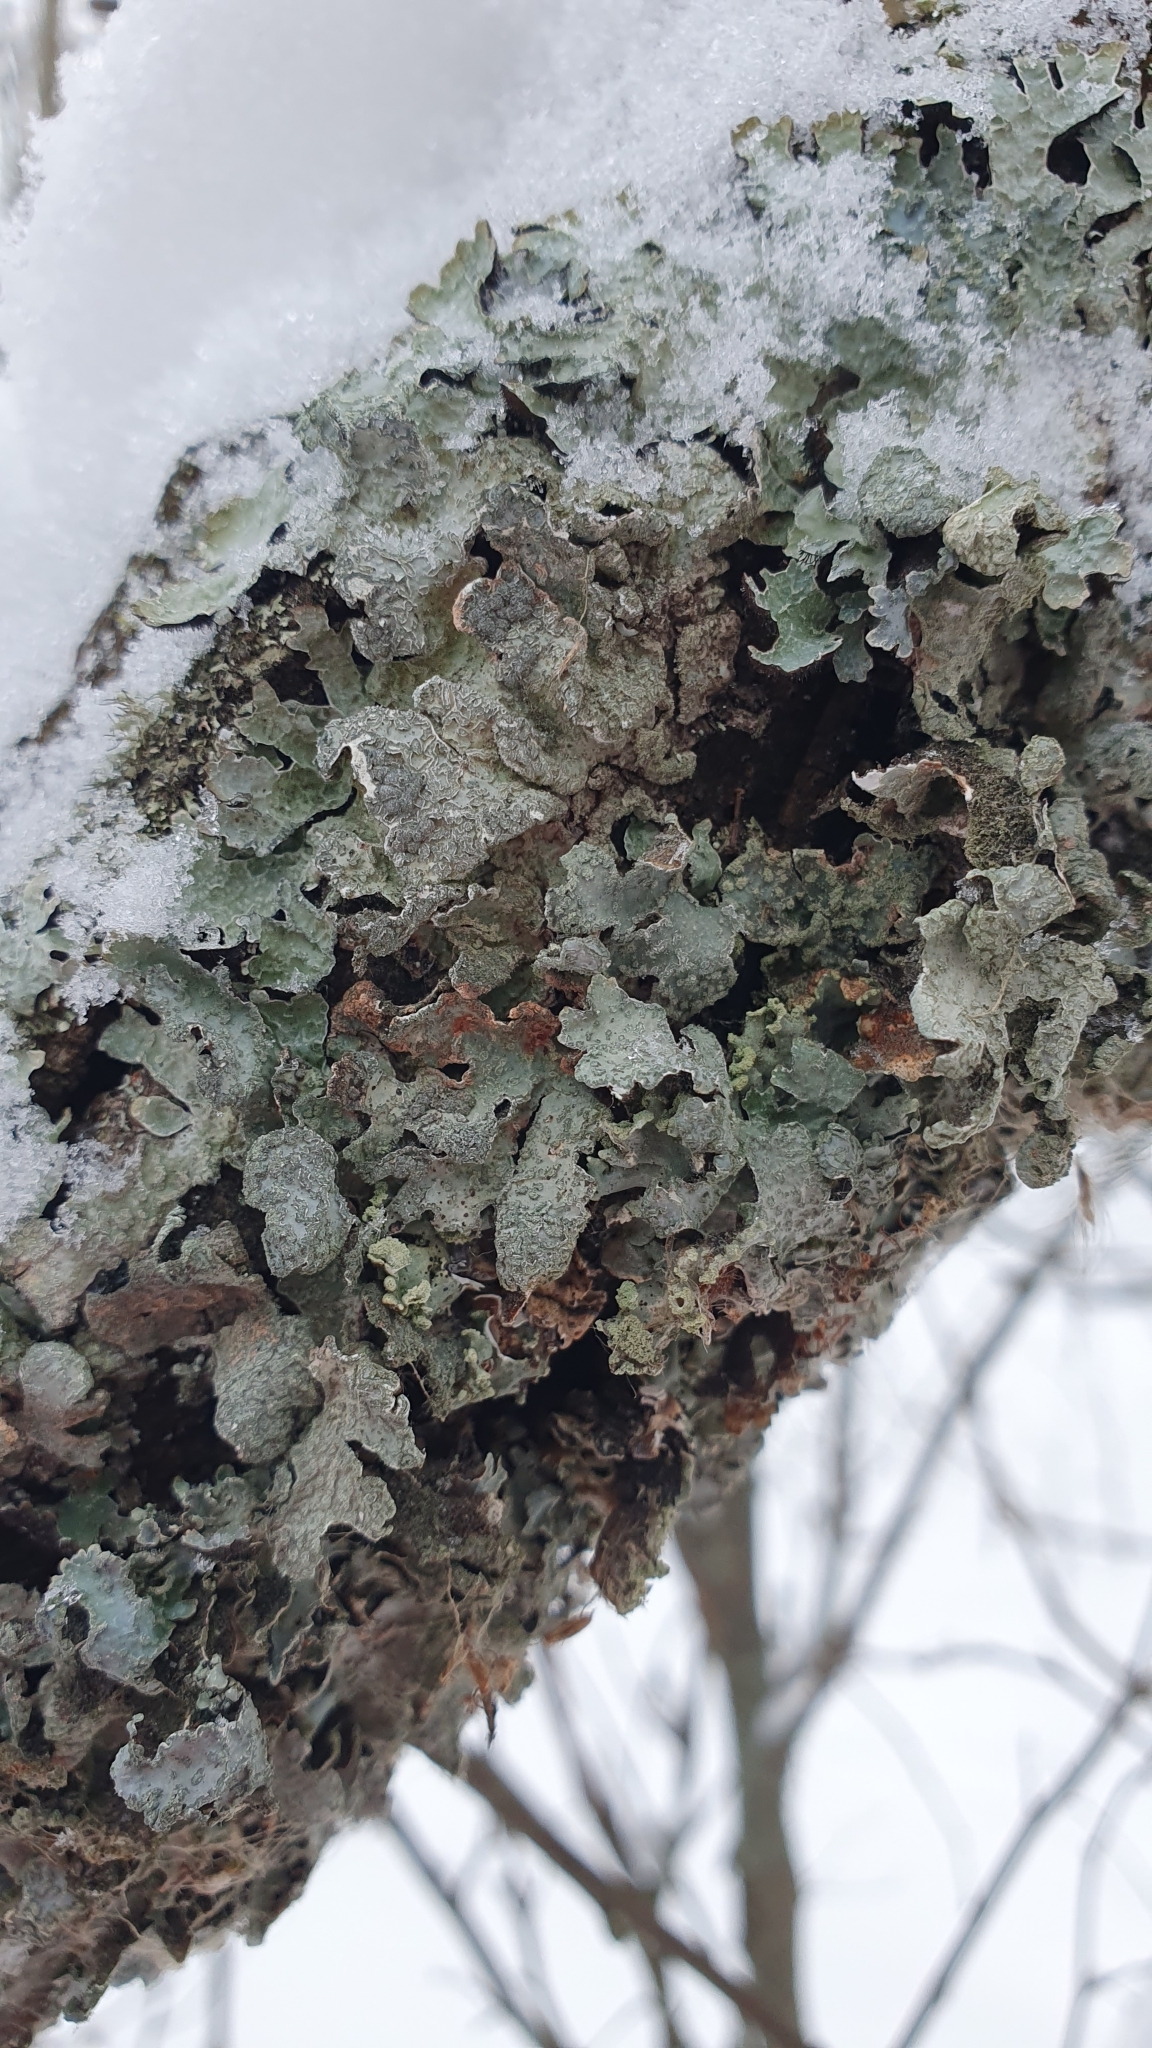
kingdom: Fungi
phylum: Ascomycota
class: Lecanoromycetes
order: Lecanorales
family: Parmeliaceae
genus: Parmelia
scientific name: Parmelia sulcata
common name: Netted shield lichen
